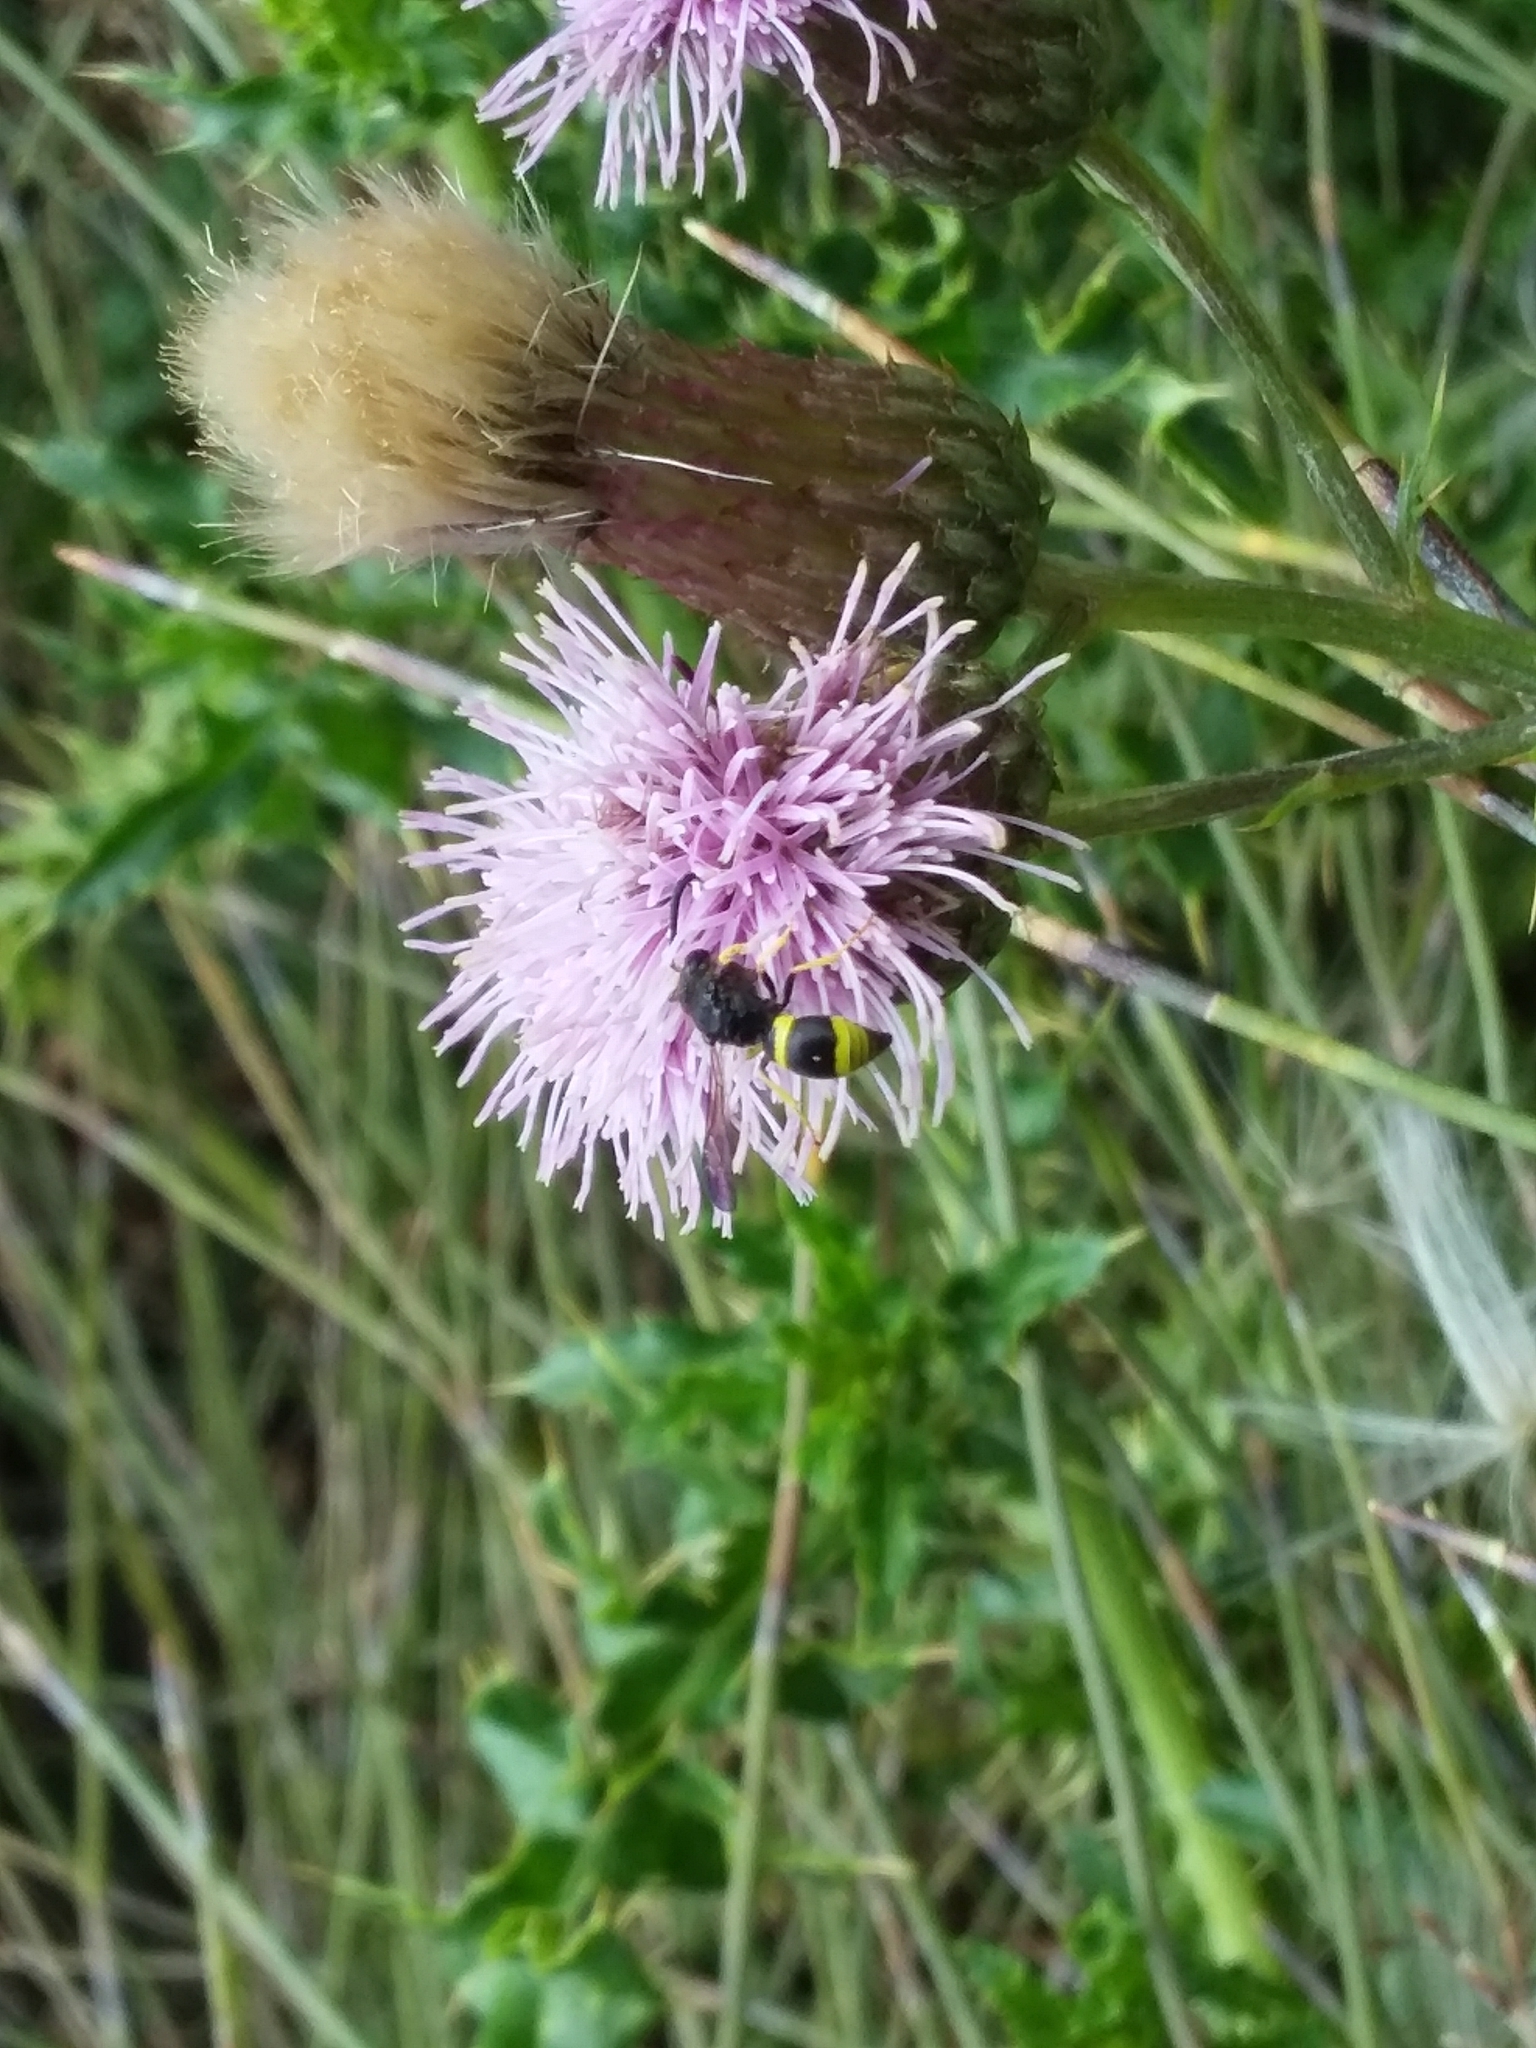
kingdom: Animalia
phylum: Arthropoda
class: Insecta
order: Hymenoptera
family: Vespidae
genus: Ancistrocerus
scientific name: Ancistrocerus gazella
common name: European tube wasp
